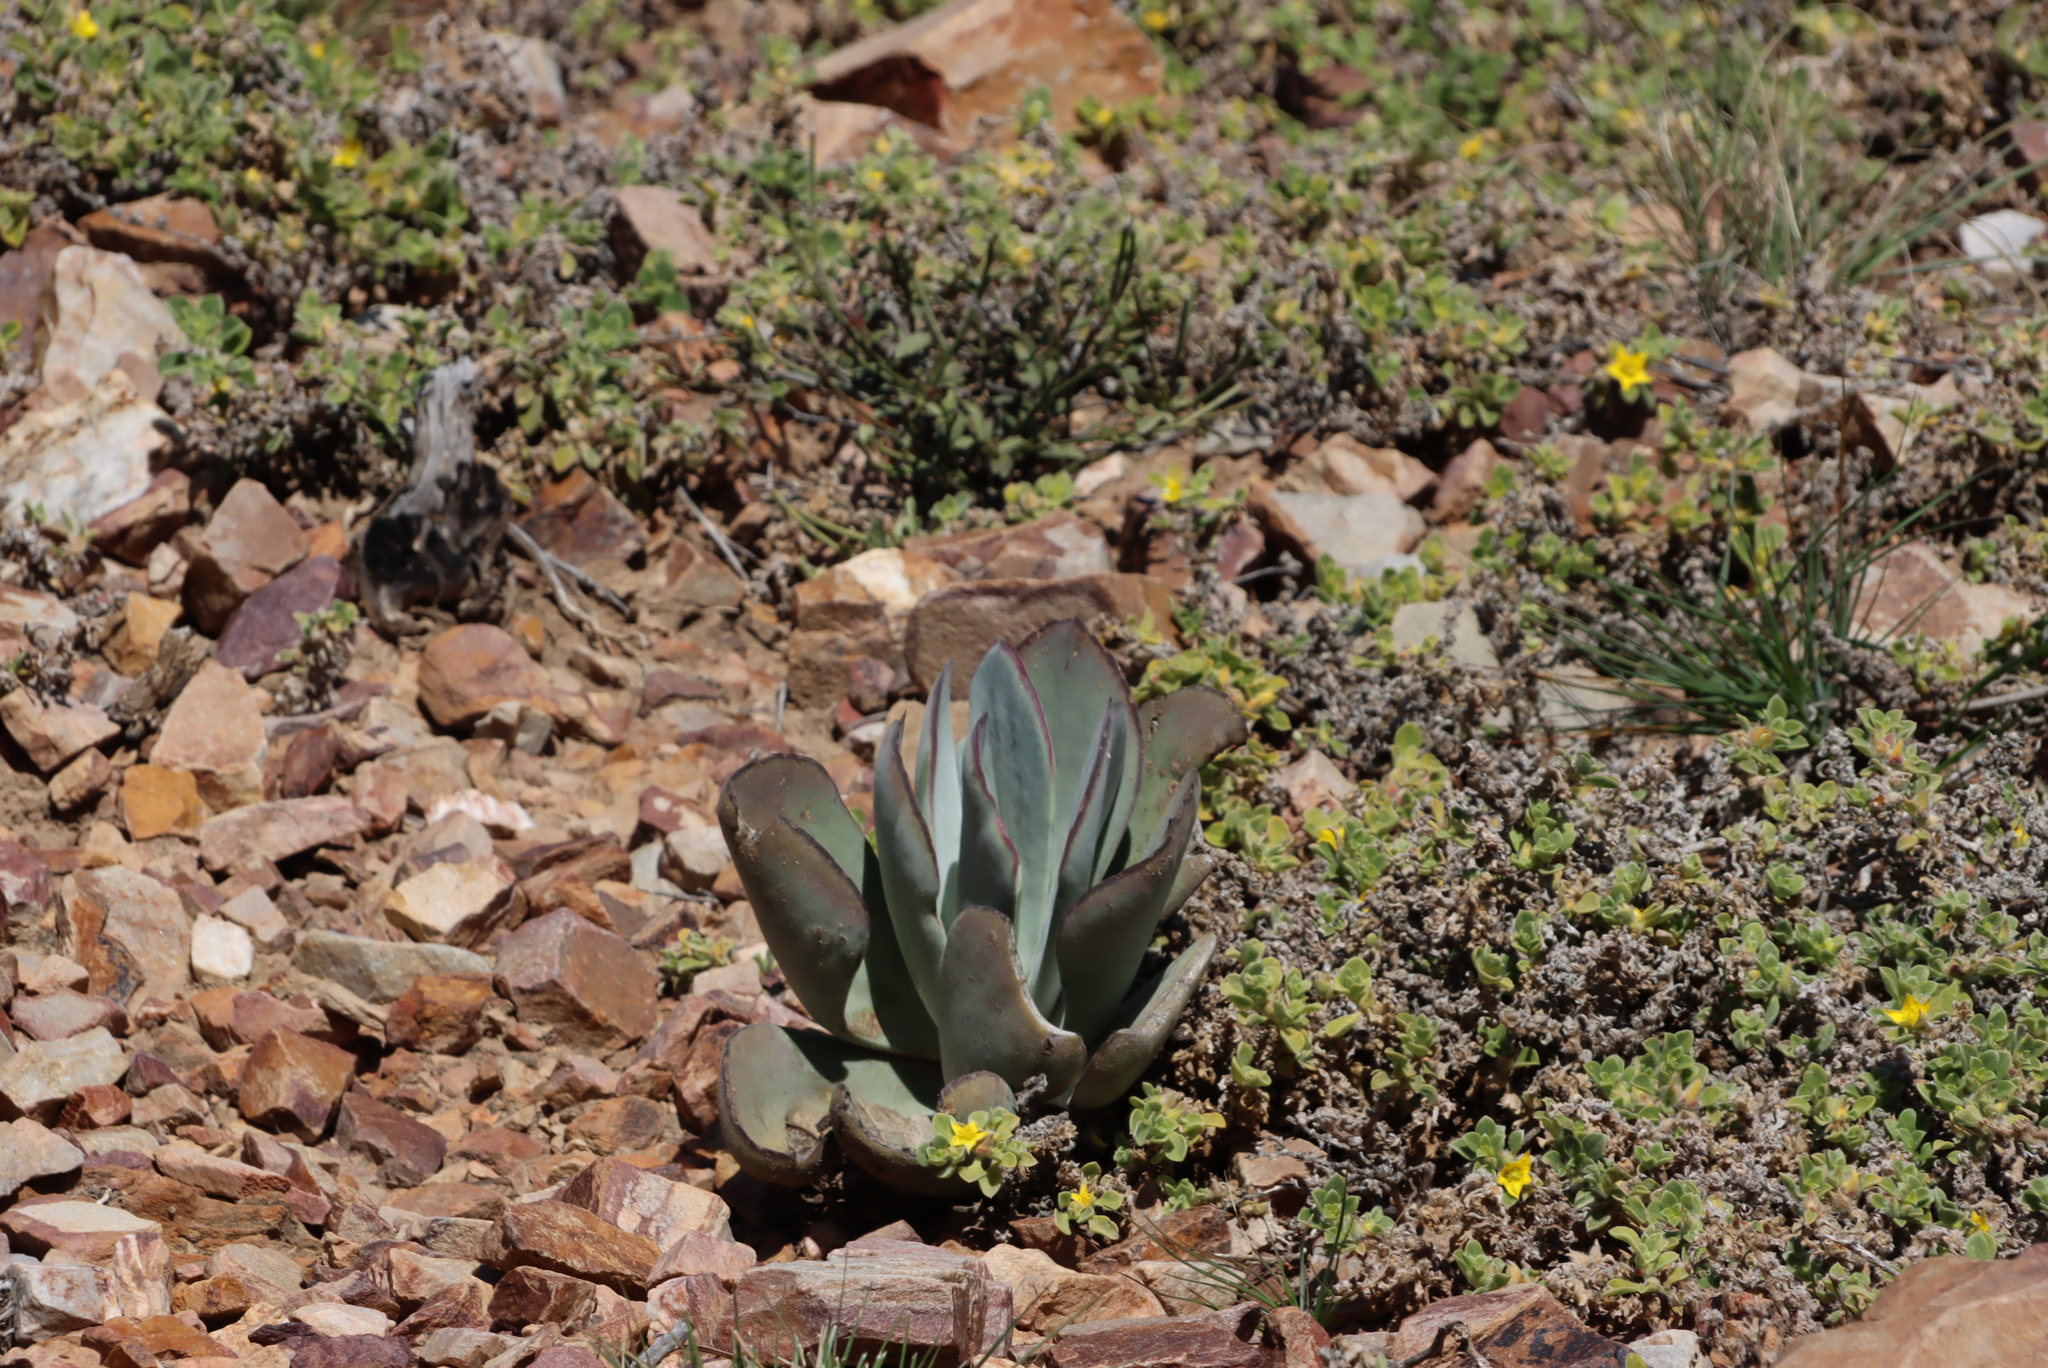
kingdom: Plantae
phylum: Tracheophyta
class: Magnoliopsida
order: Saxifragales
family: Crassulaceae
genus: Cotyledon
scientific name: Cotyledon velutina
